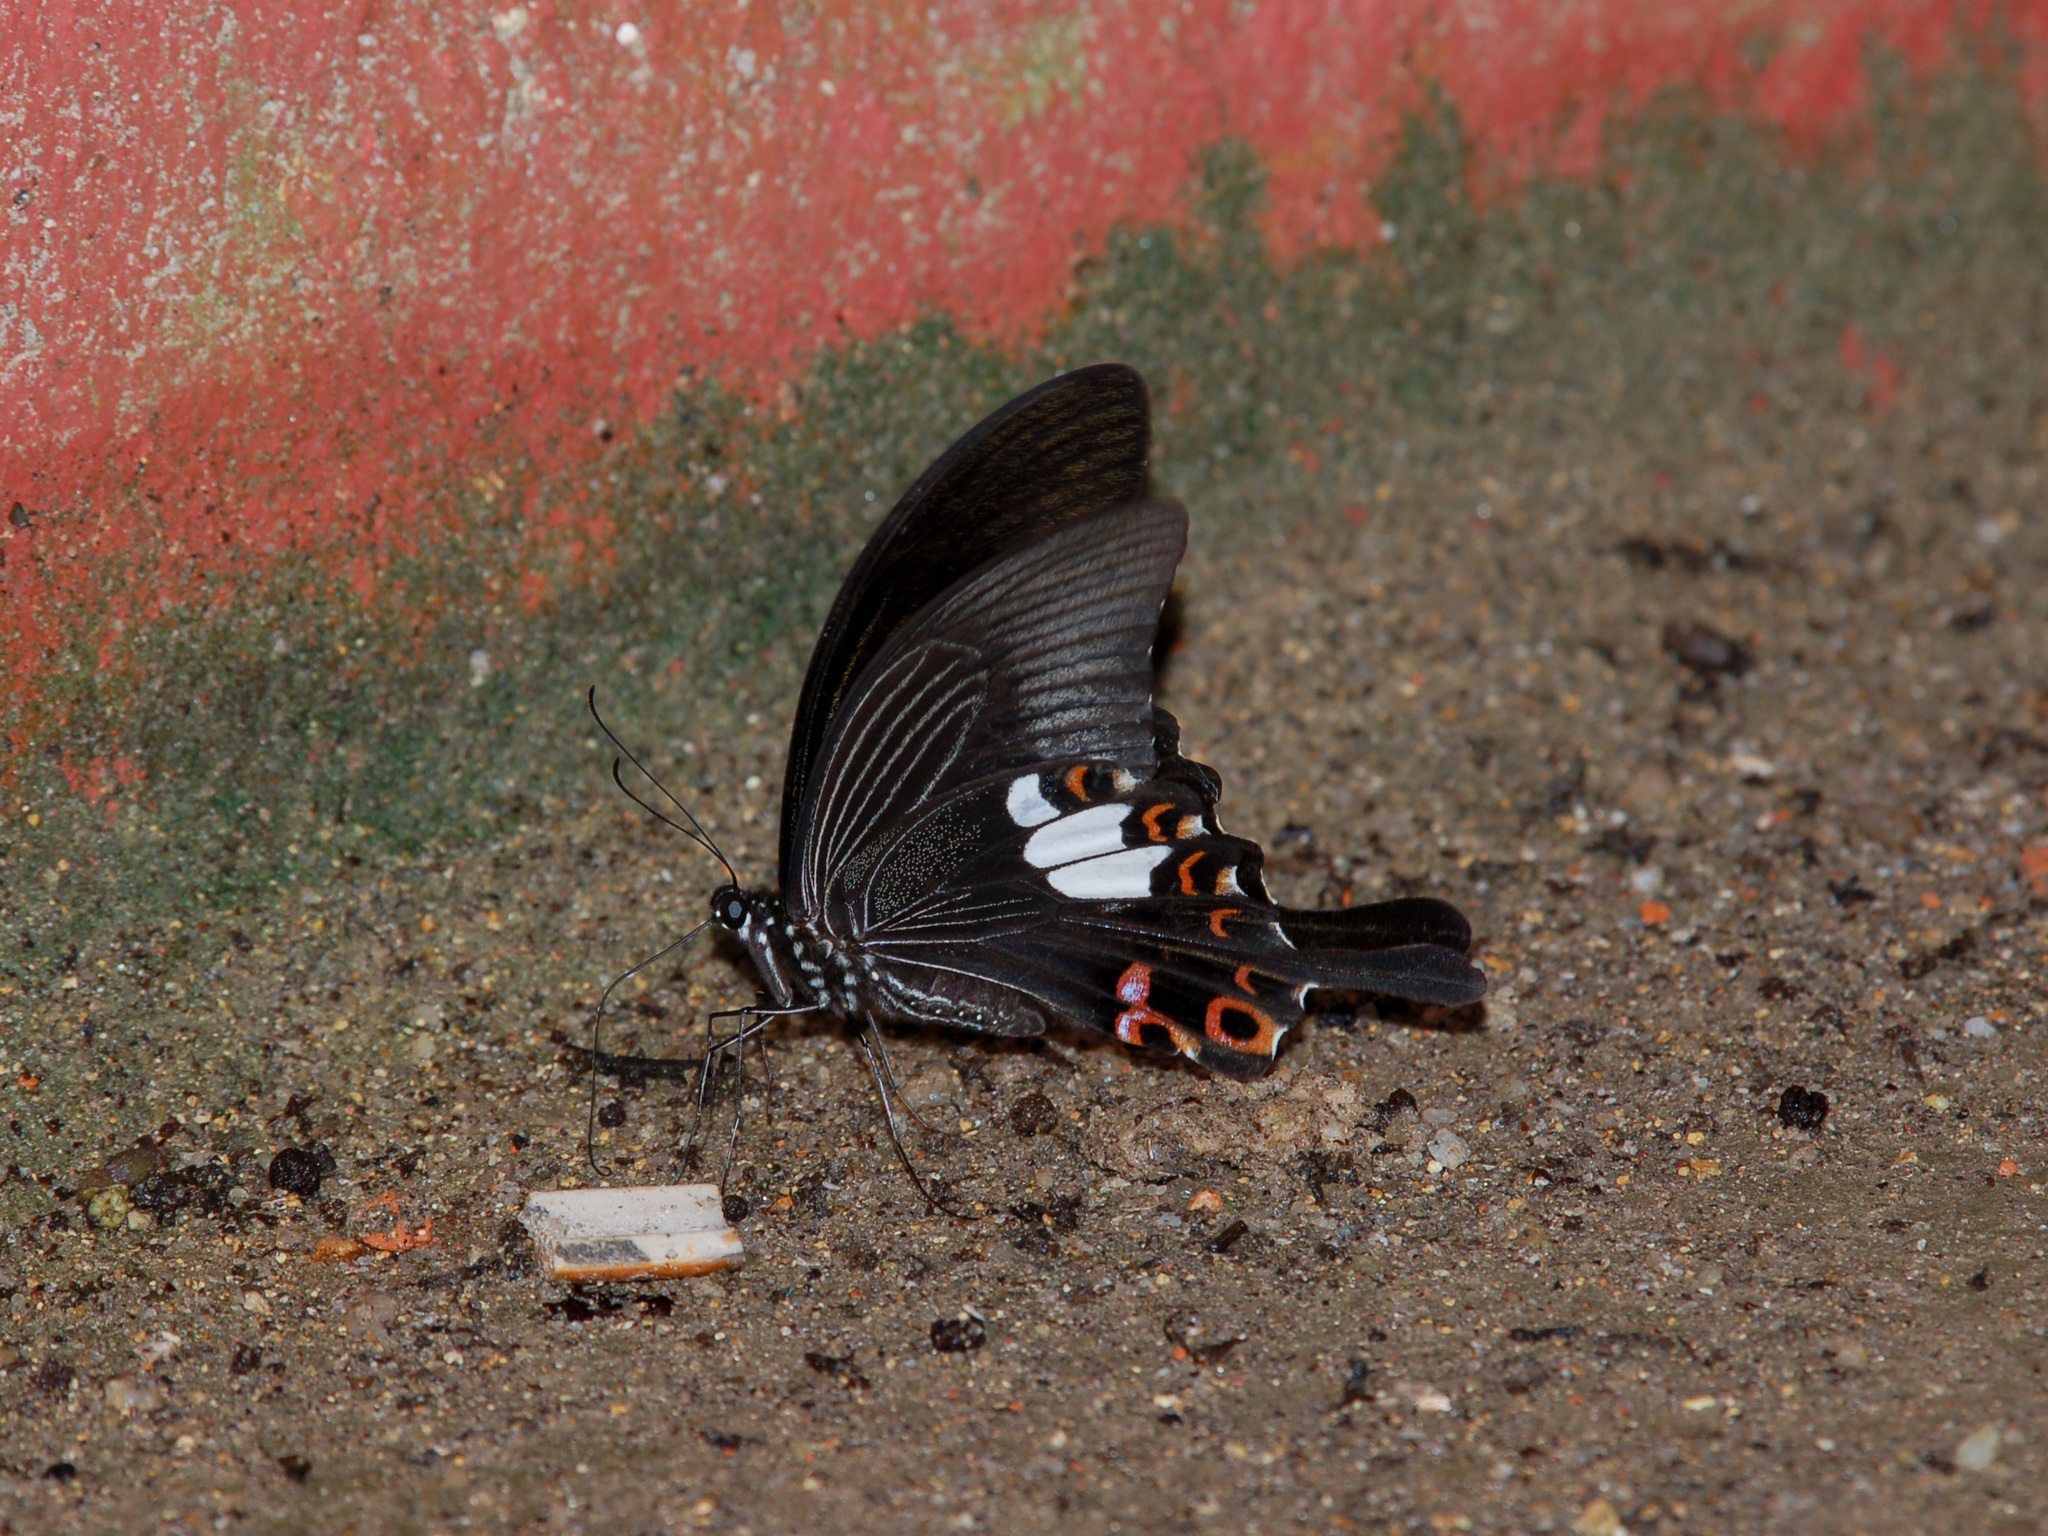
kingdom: Animalia
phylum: Arthropoda
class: Insecta
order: Lepidoptera
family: Papilionidae
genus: Papilio
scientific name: Papilio helenus
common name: Red helen
